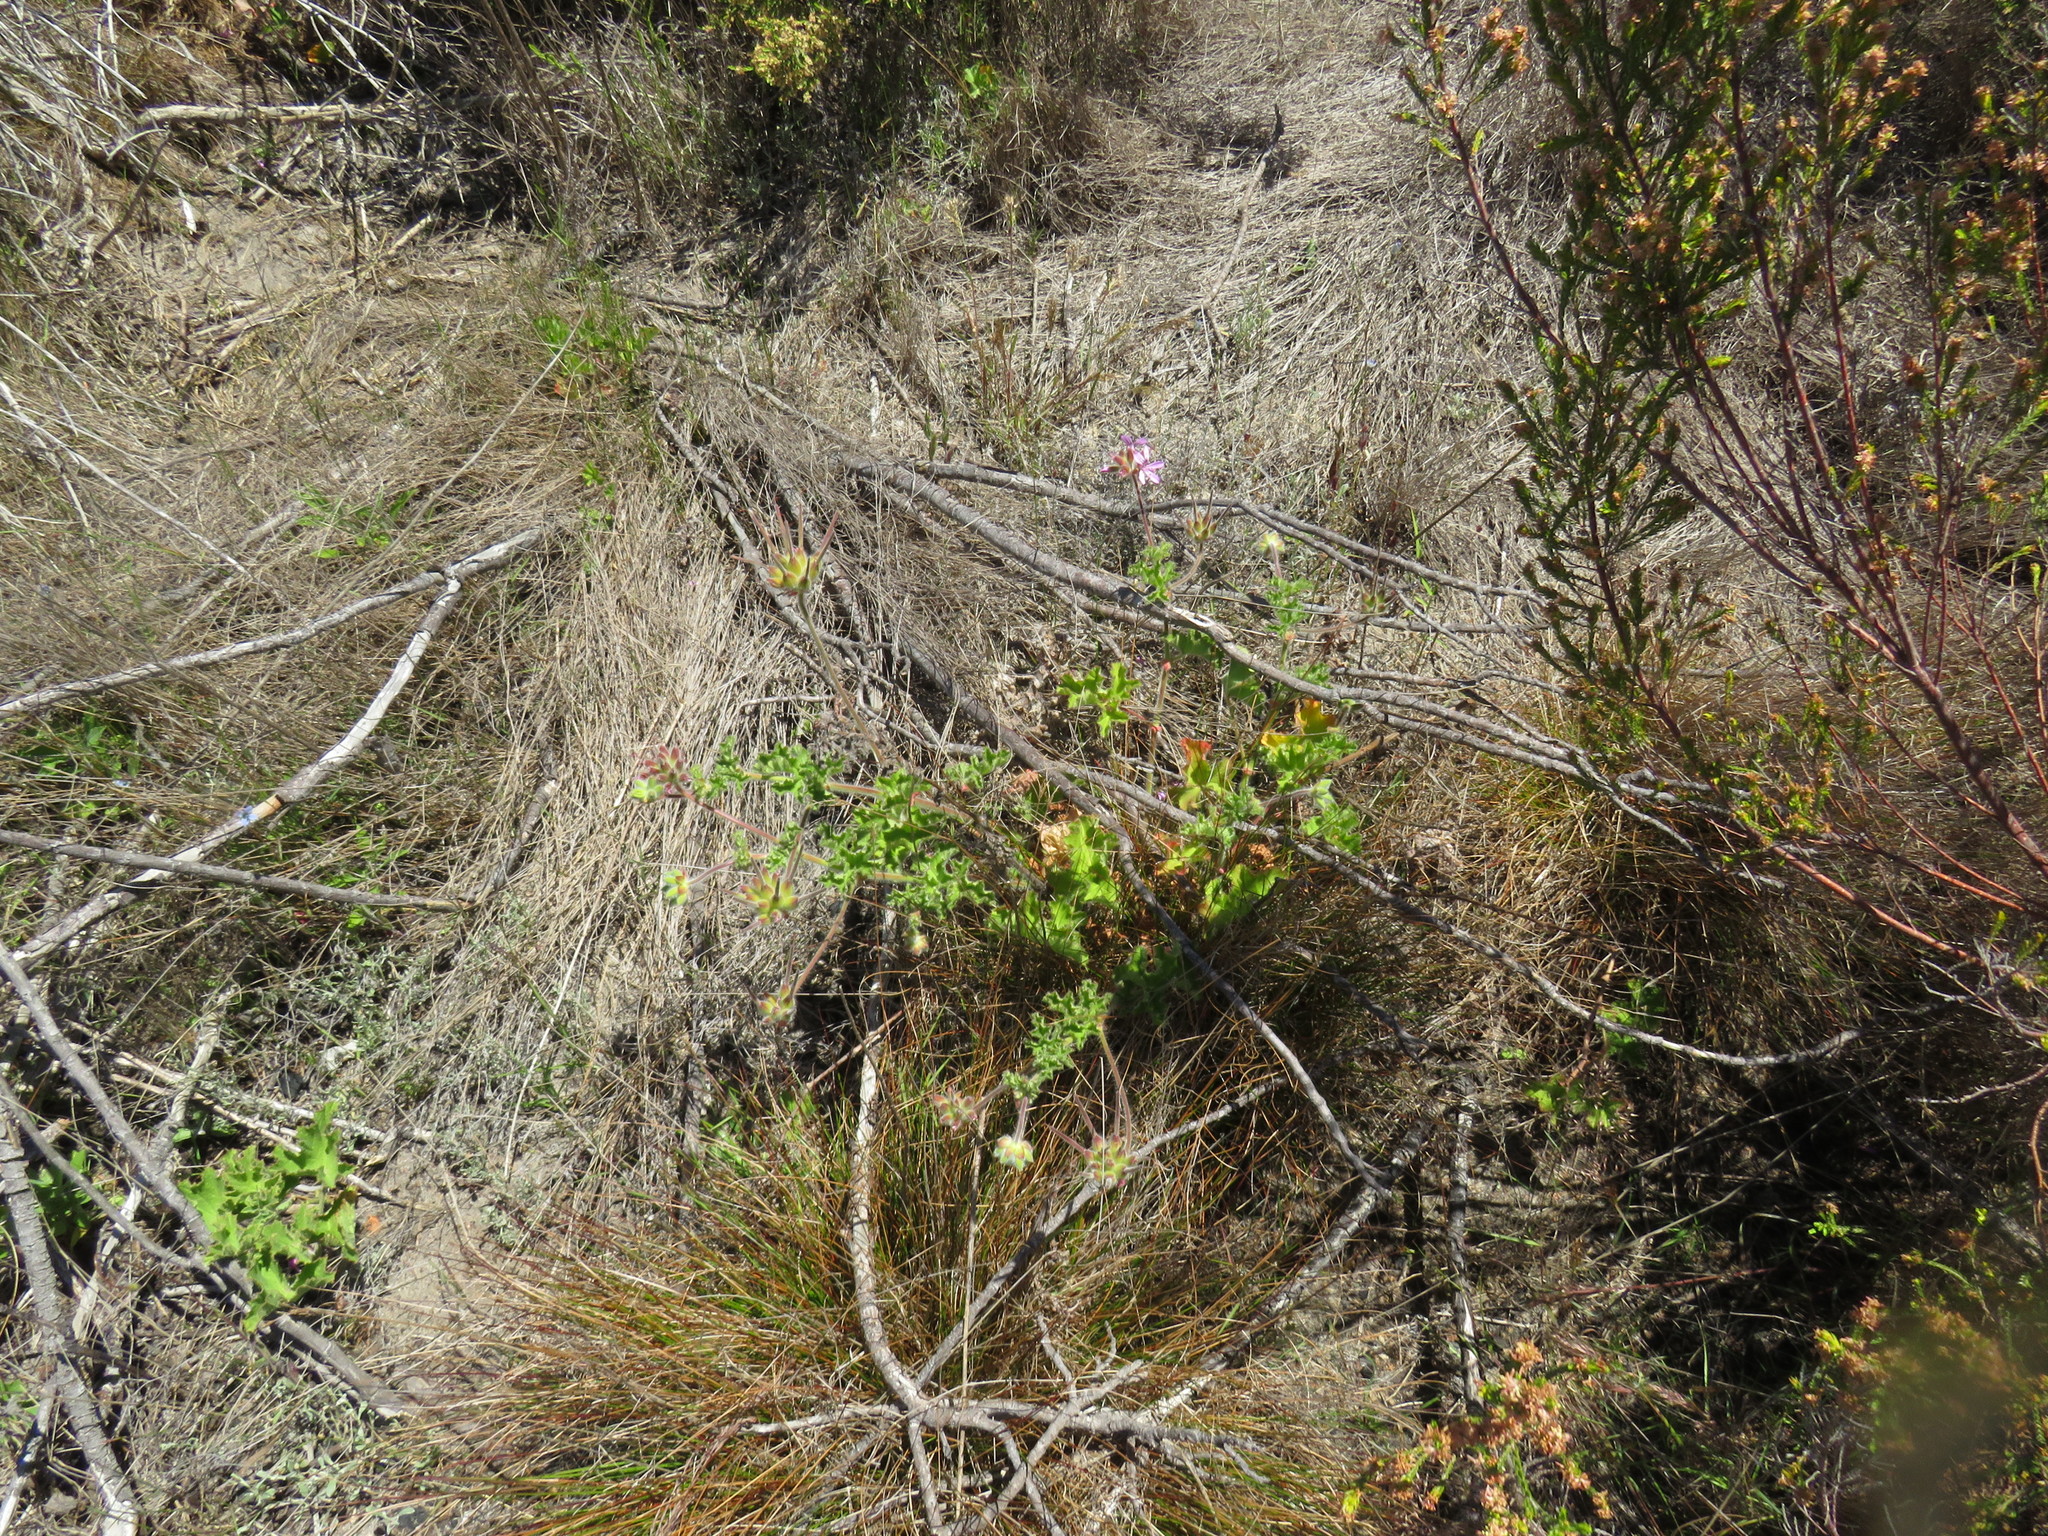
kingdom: Plantae
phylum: Tracheophyta
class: Magnoliopsida
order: Geraniales
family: Geraniaceae
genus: Pelargonium
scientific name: Pelargonium capitatum
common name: Rose scented geranium
